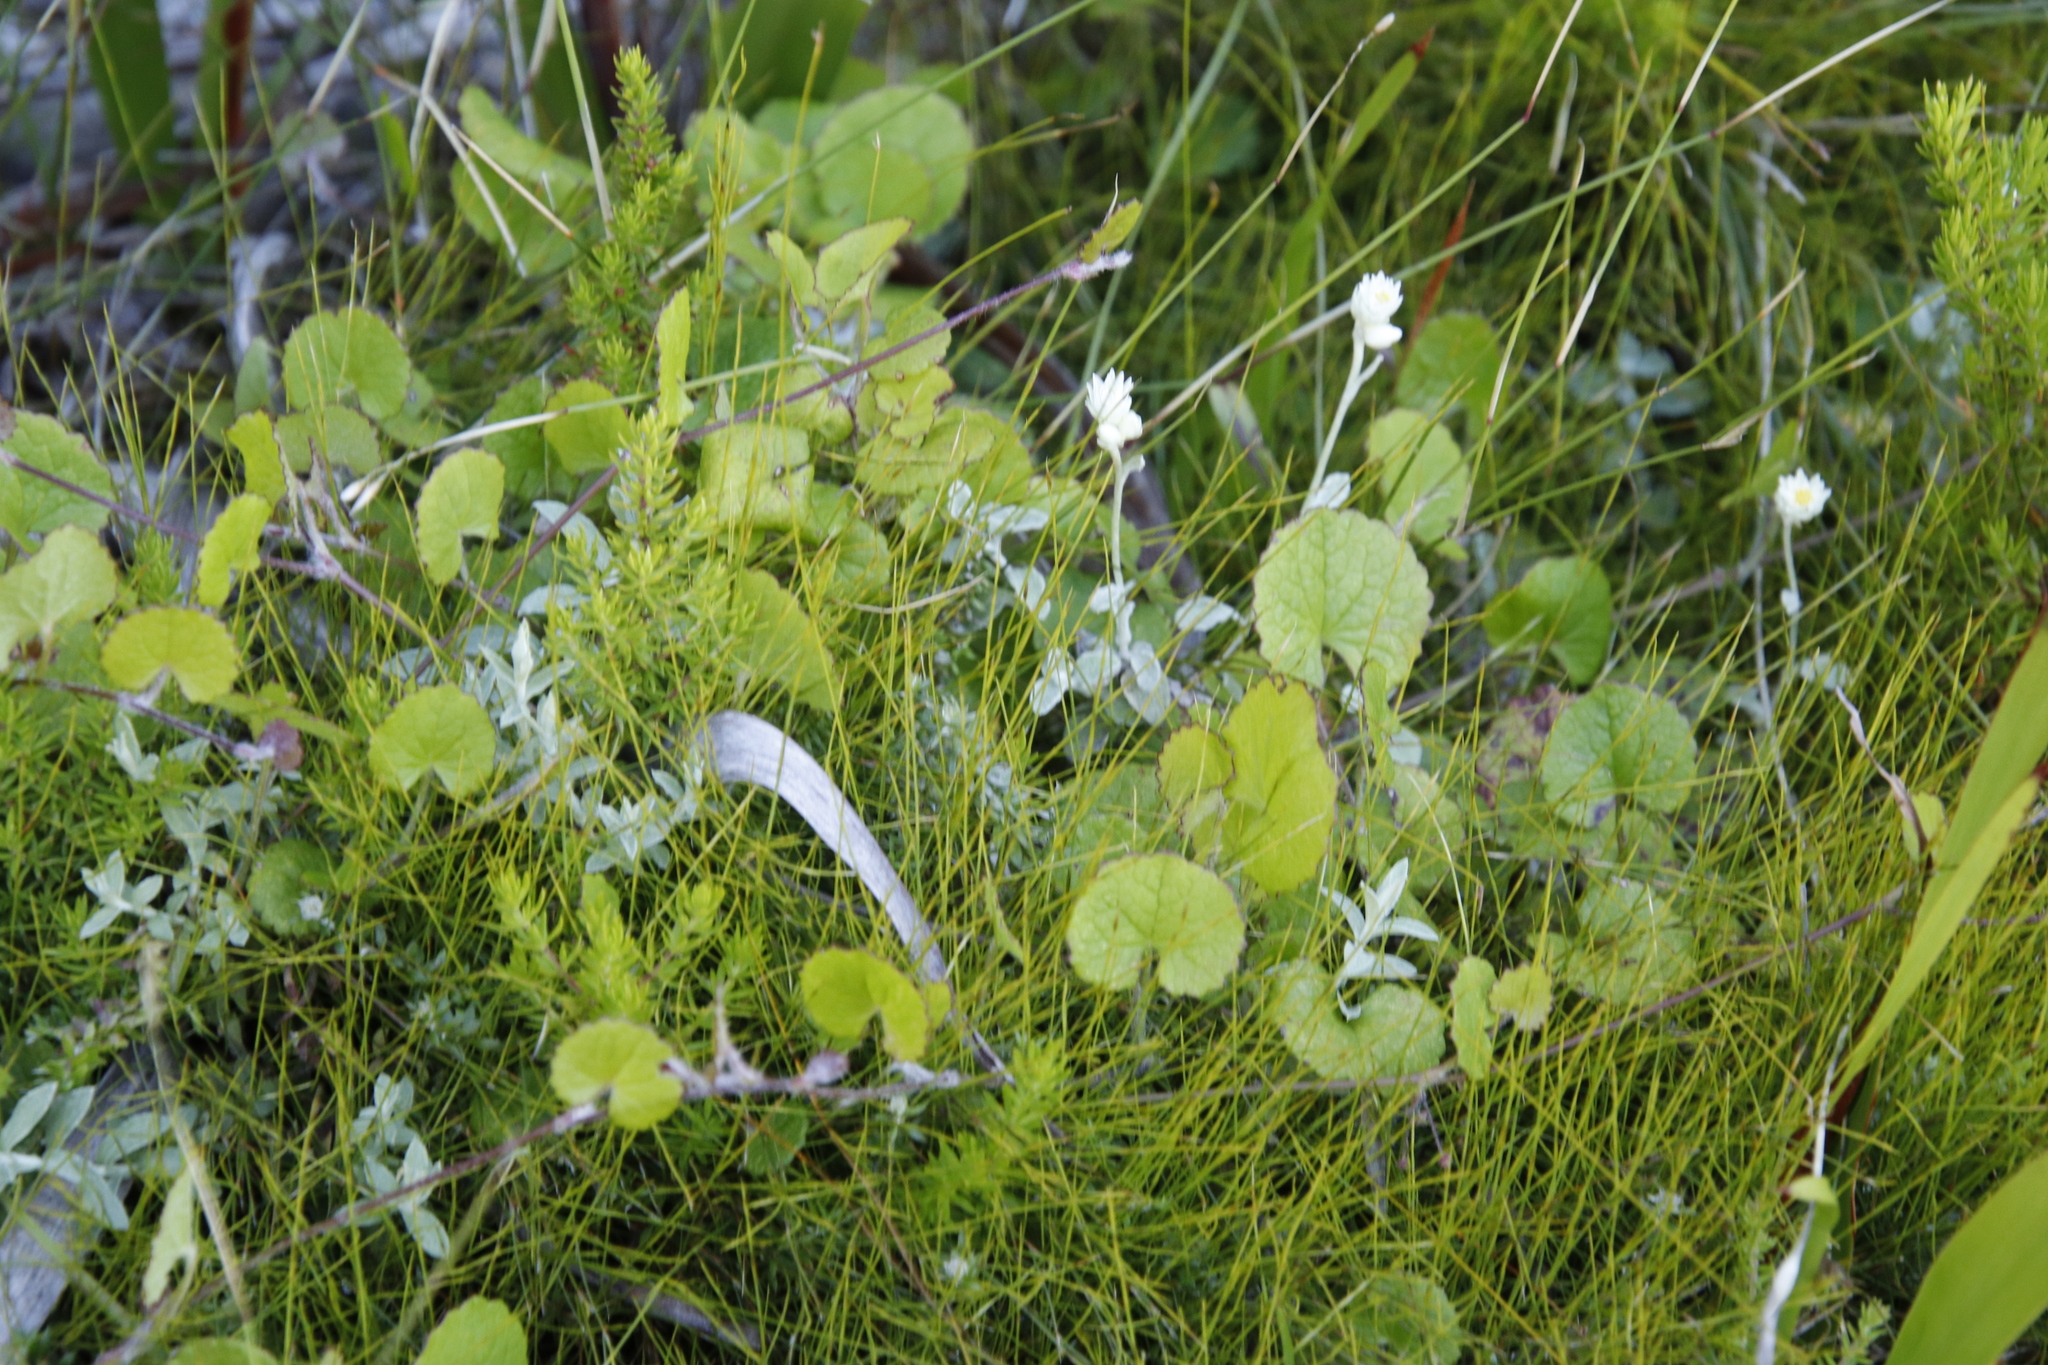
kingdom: Plantae
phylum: Tracheophyta
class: Magnoliopsida
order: Apiales
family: Apiaceae
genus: Centella
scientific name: Centella eriantha
